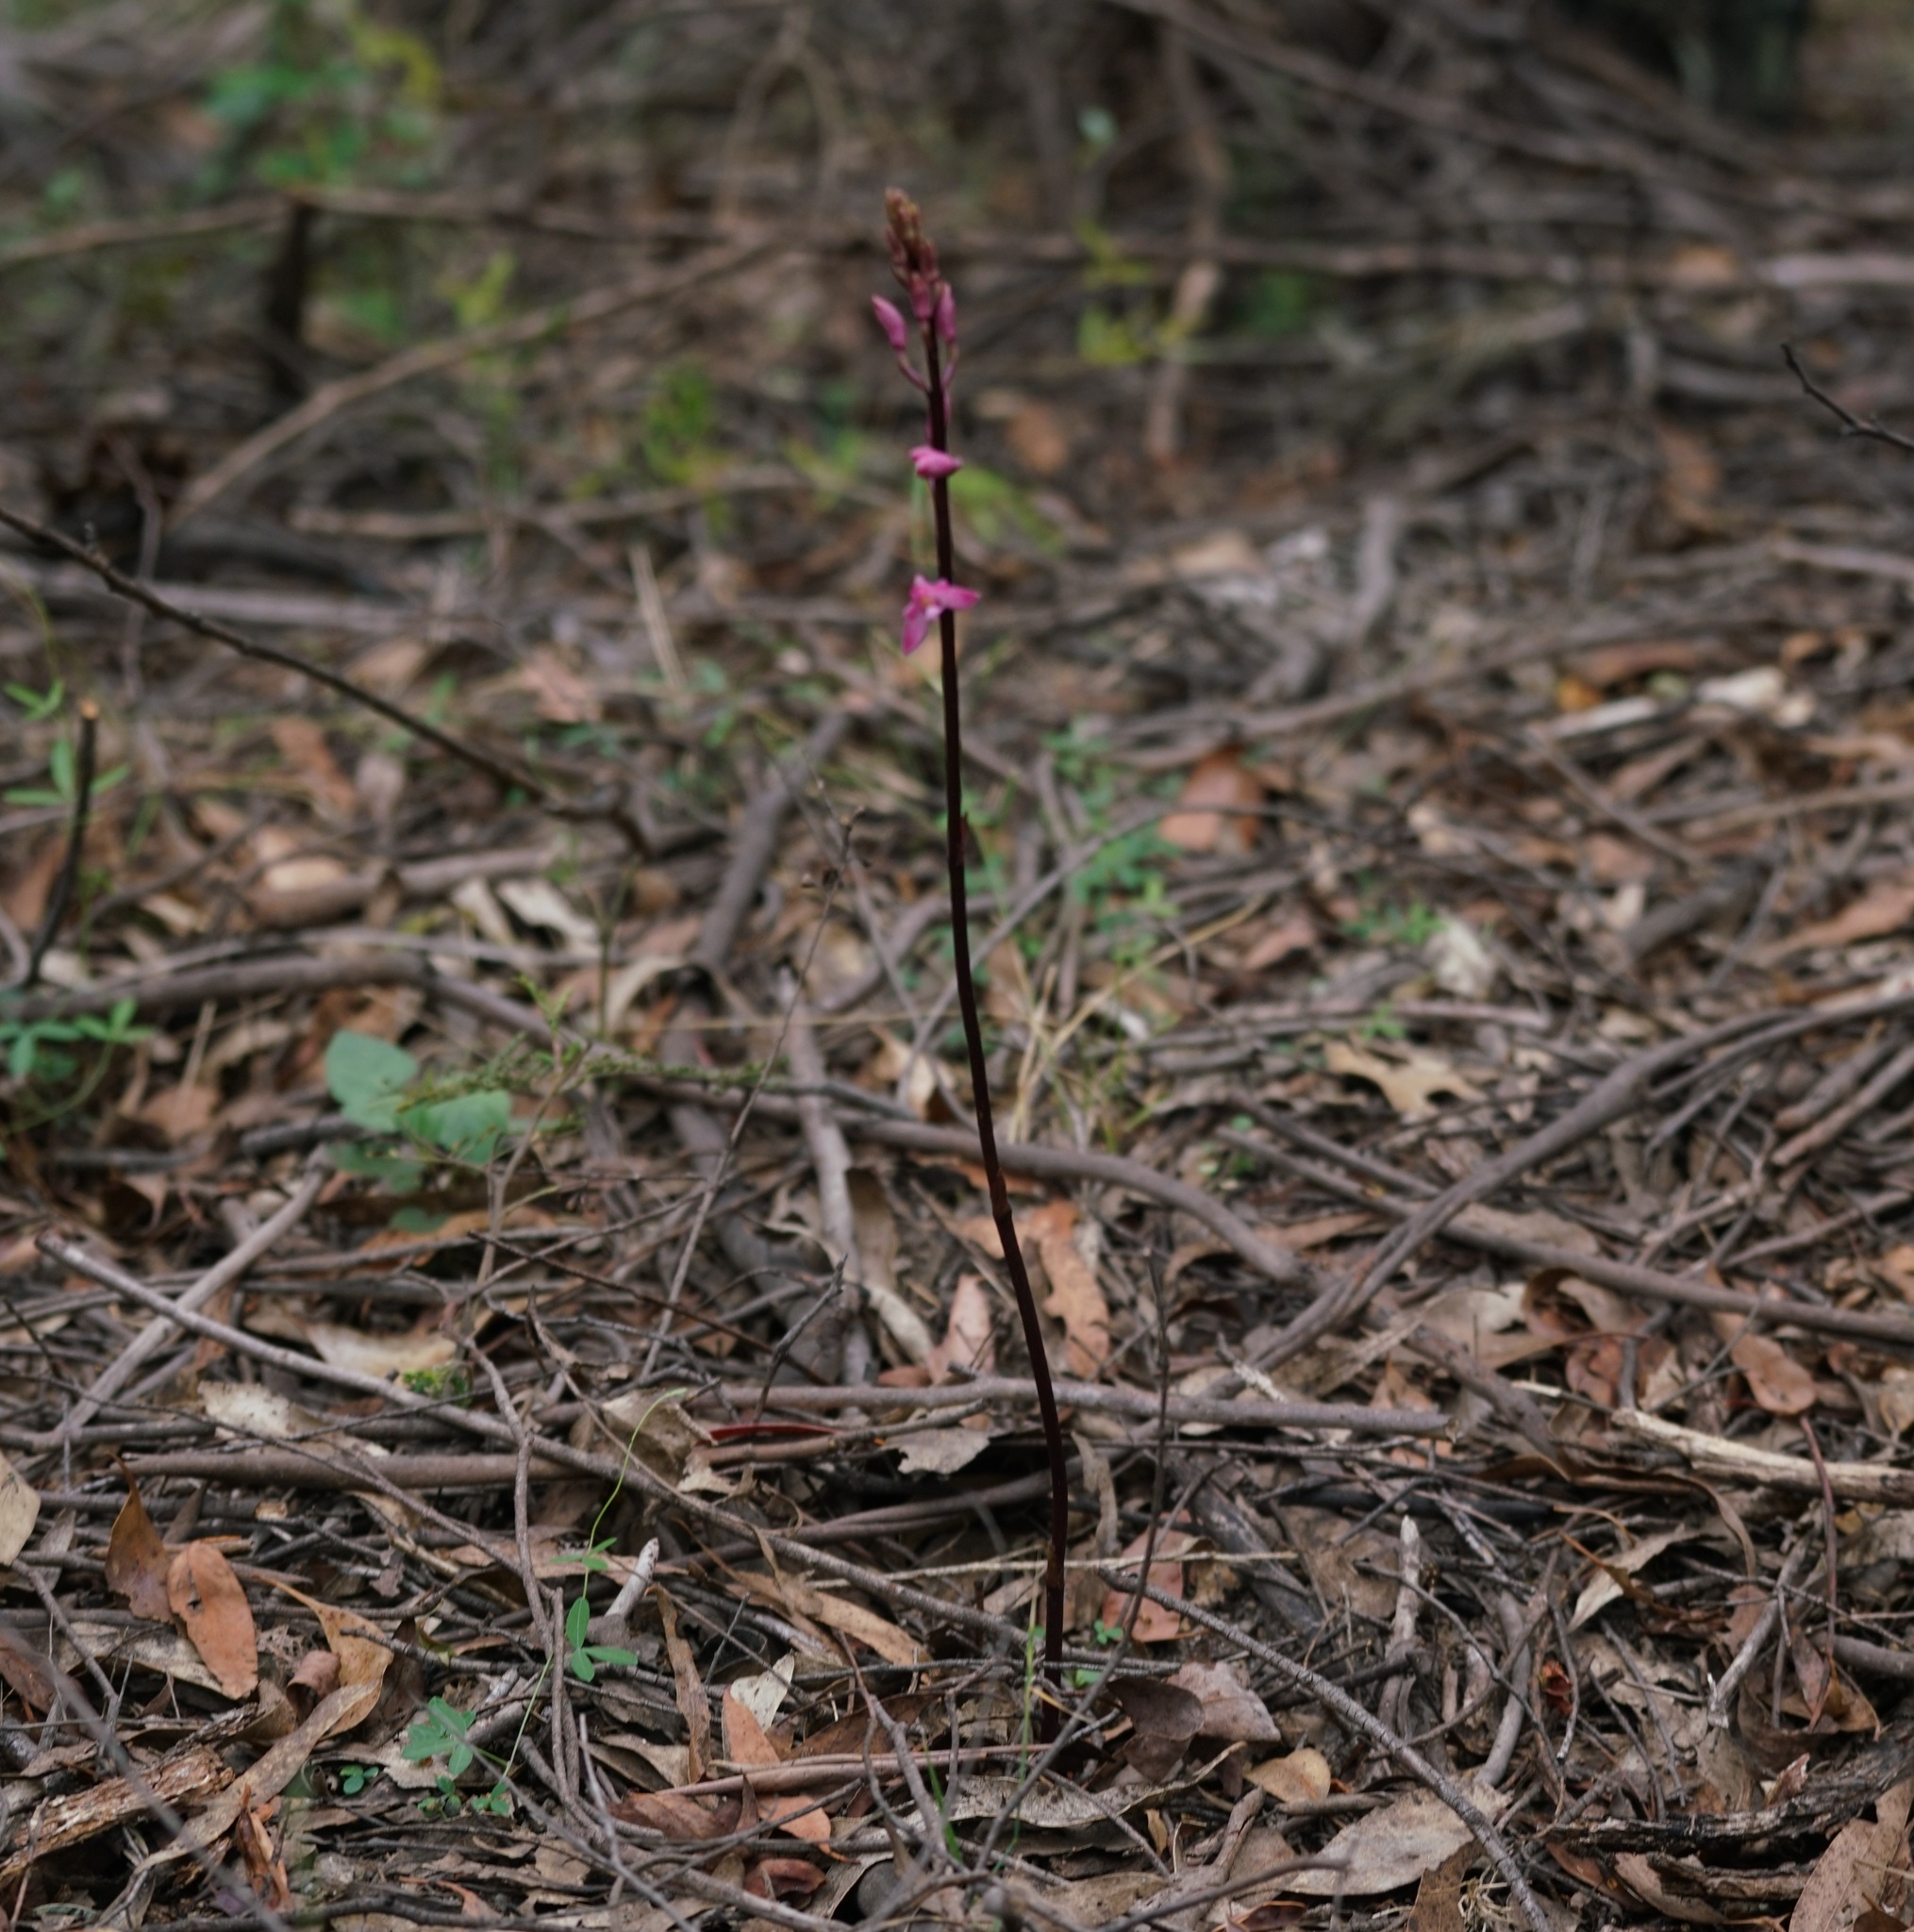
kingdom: Plantae
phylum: Tracheophyta
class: Liliopsida
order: Asparagales
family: Orchidaceae
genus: Dipodium
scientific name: Dipodium roseum
